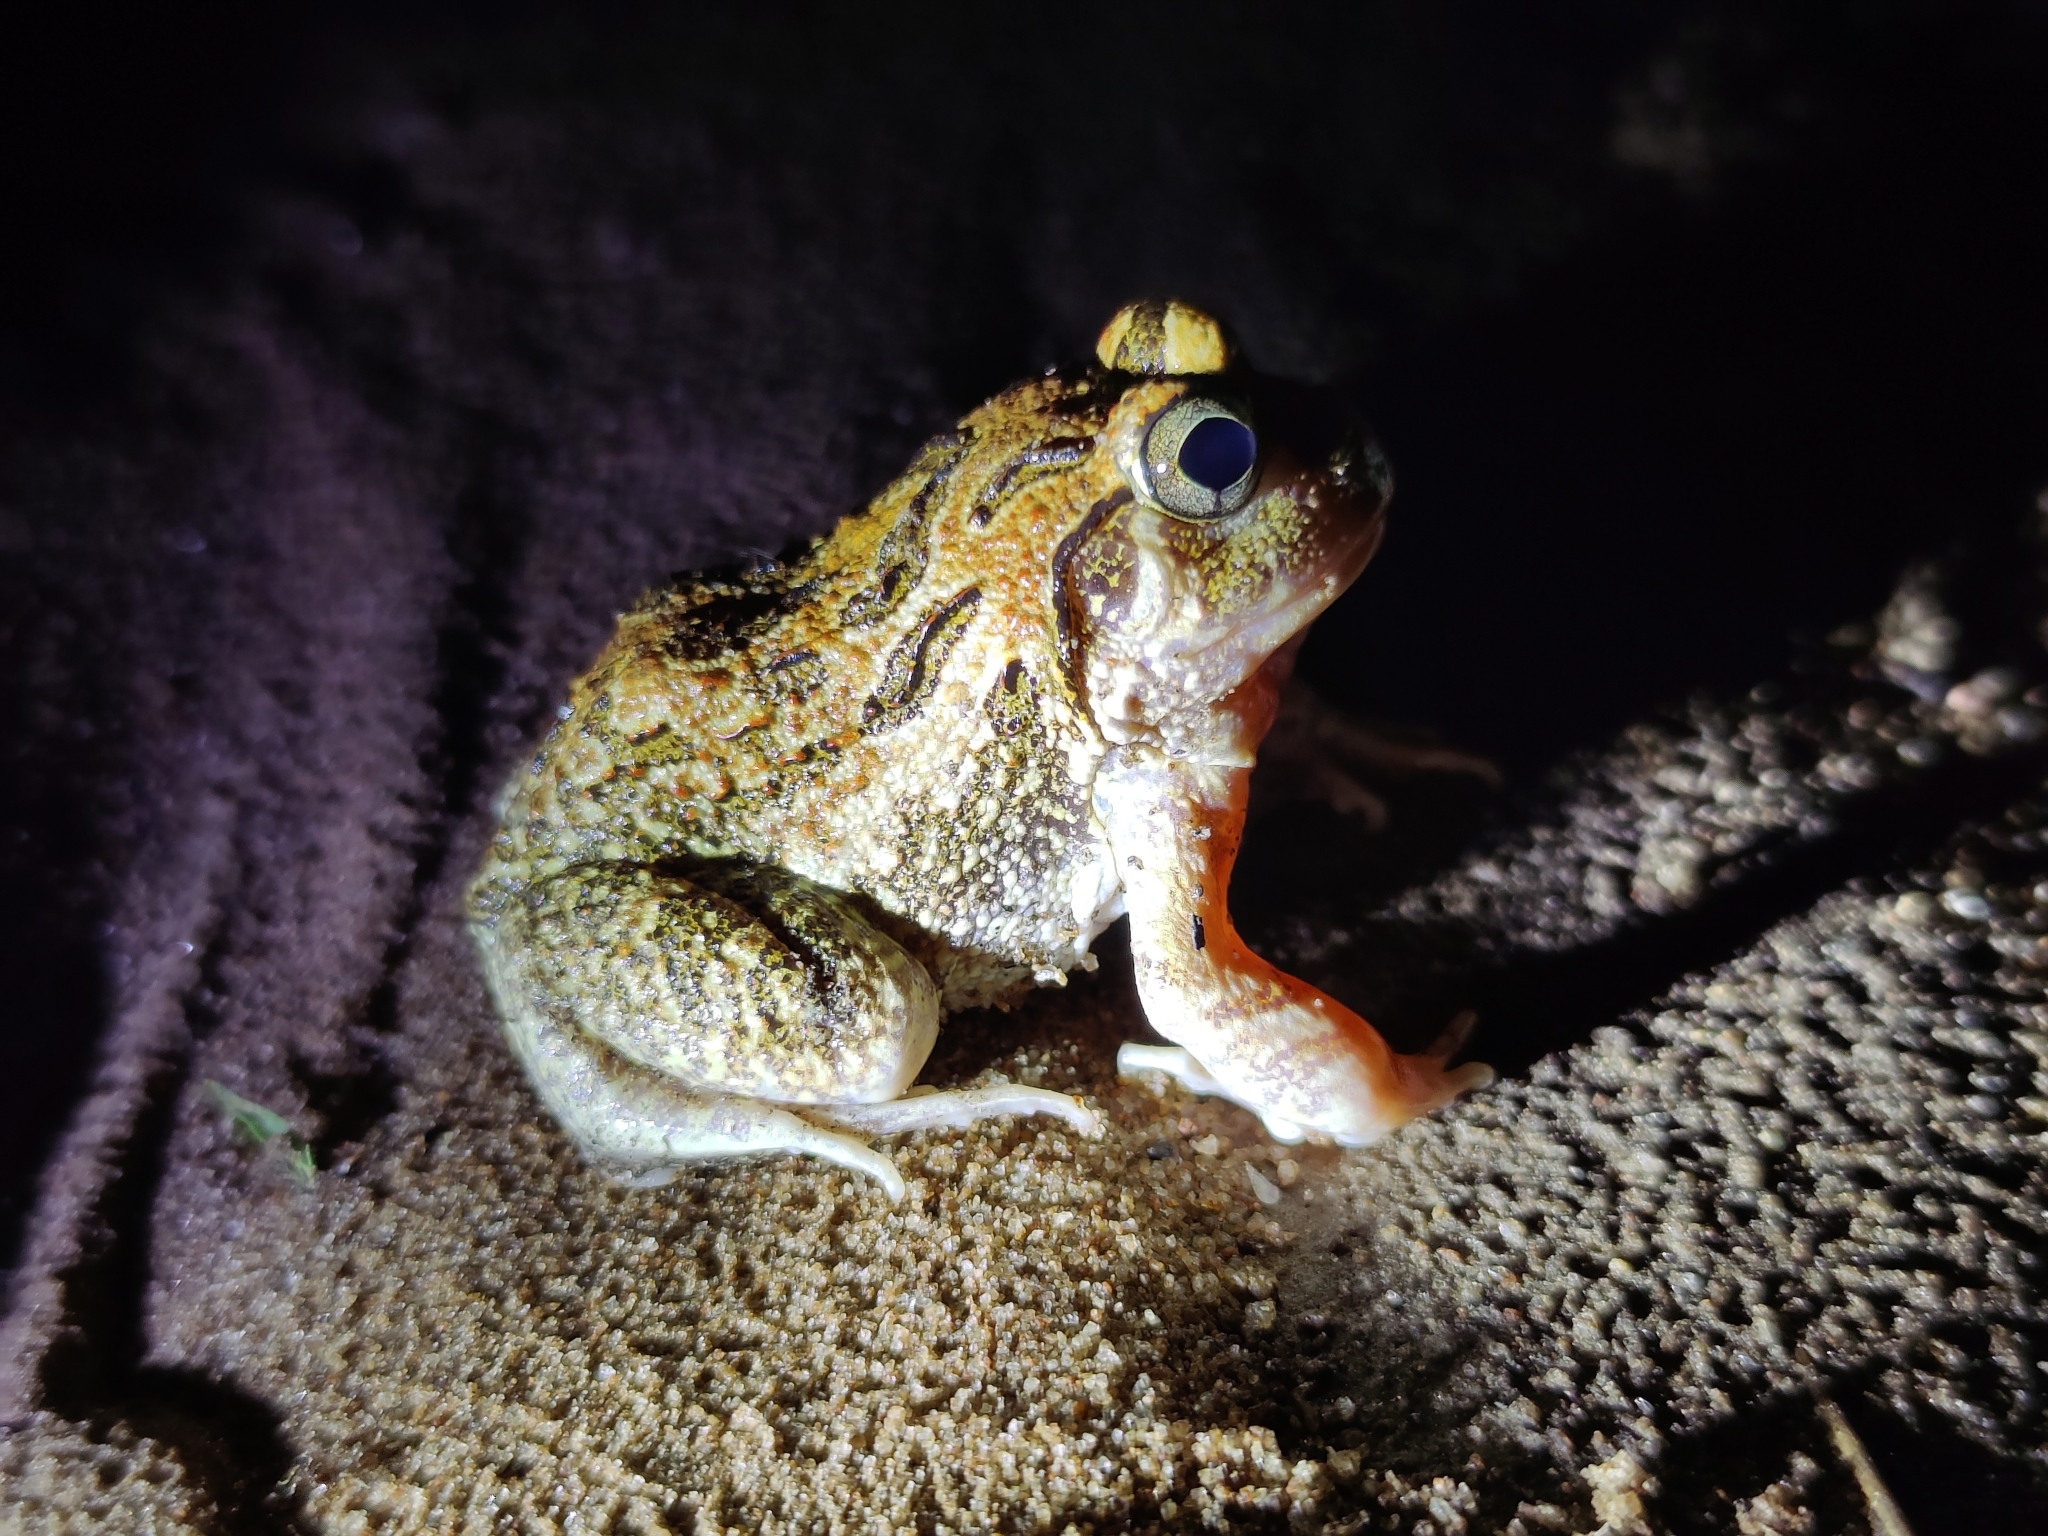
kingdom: Animalia
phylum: Chordata
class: Amphibia
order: Anura
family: Dicroglossidae
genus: Sphaerotheca
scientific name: Sphaerotheca bengaluru
